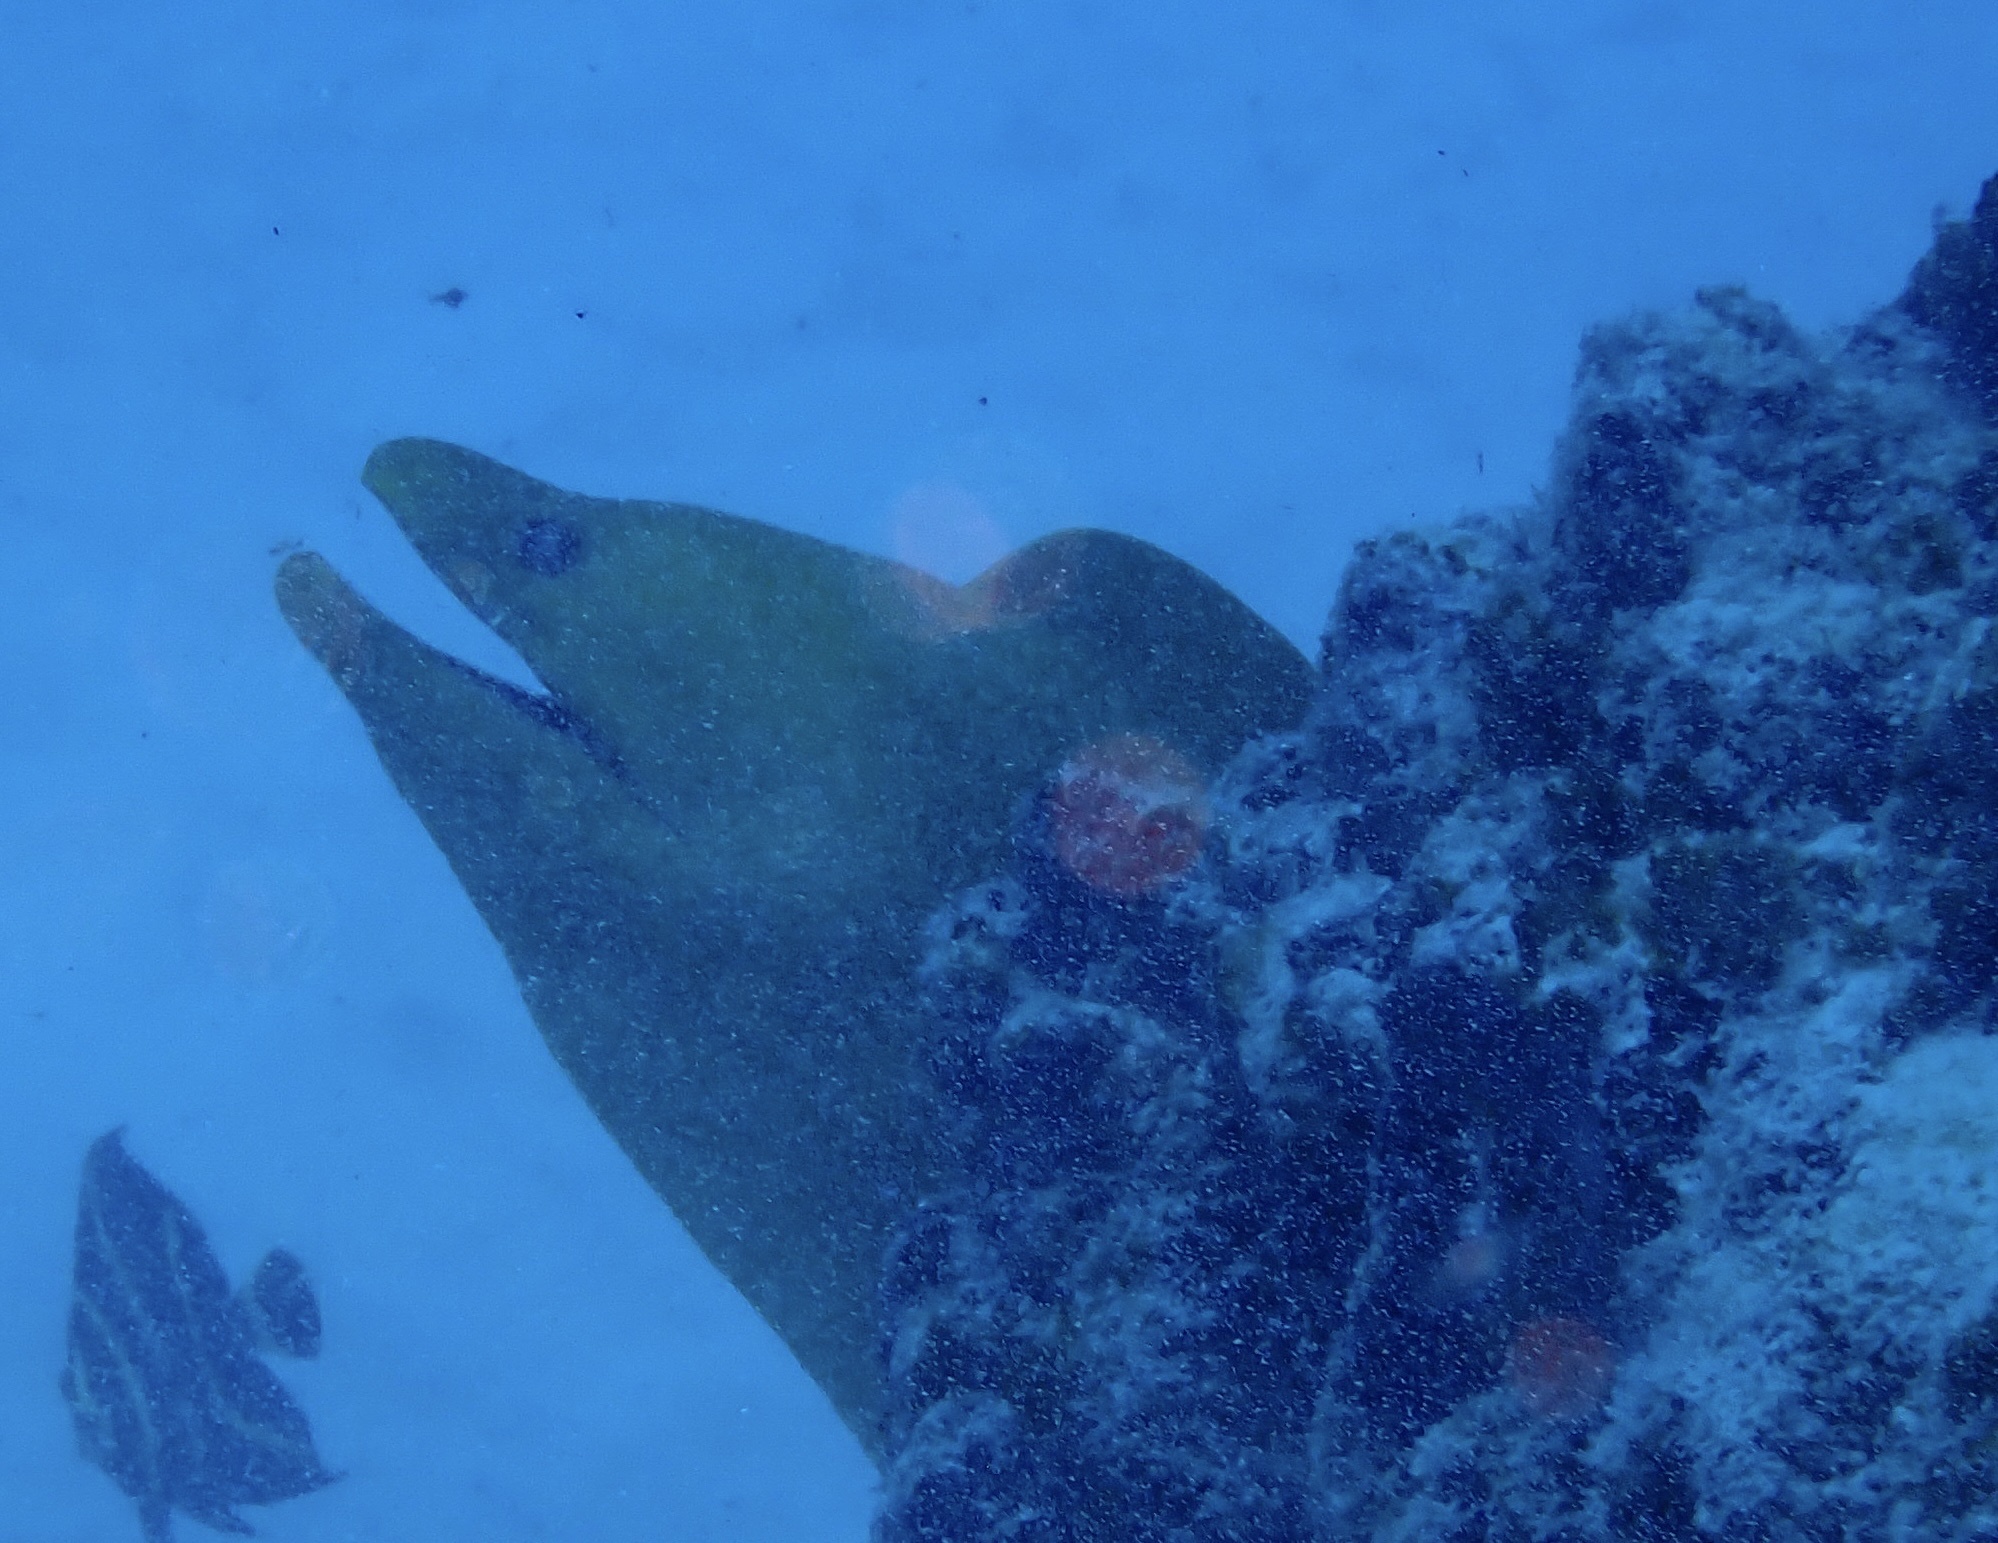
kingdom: Animalia
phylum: Chordata
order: Anguilliformes
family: Muraenidae
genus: Gymnothorax
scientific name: Gymnothorax funebris
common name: Green moray
